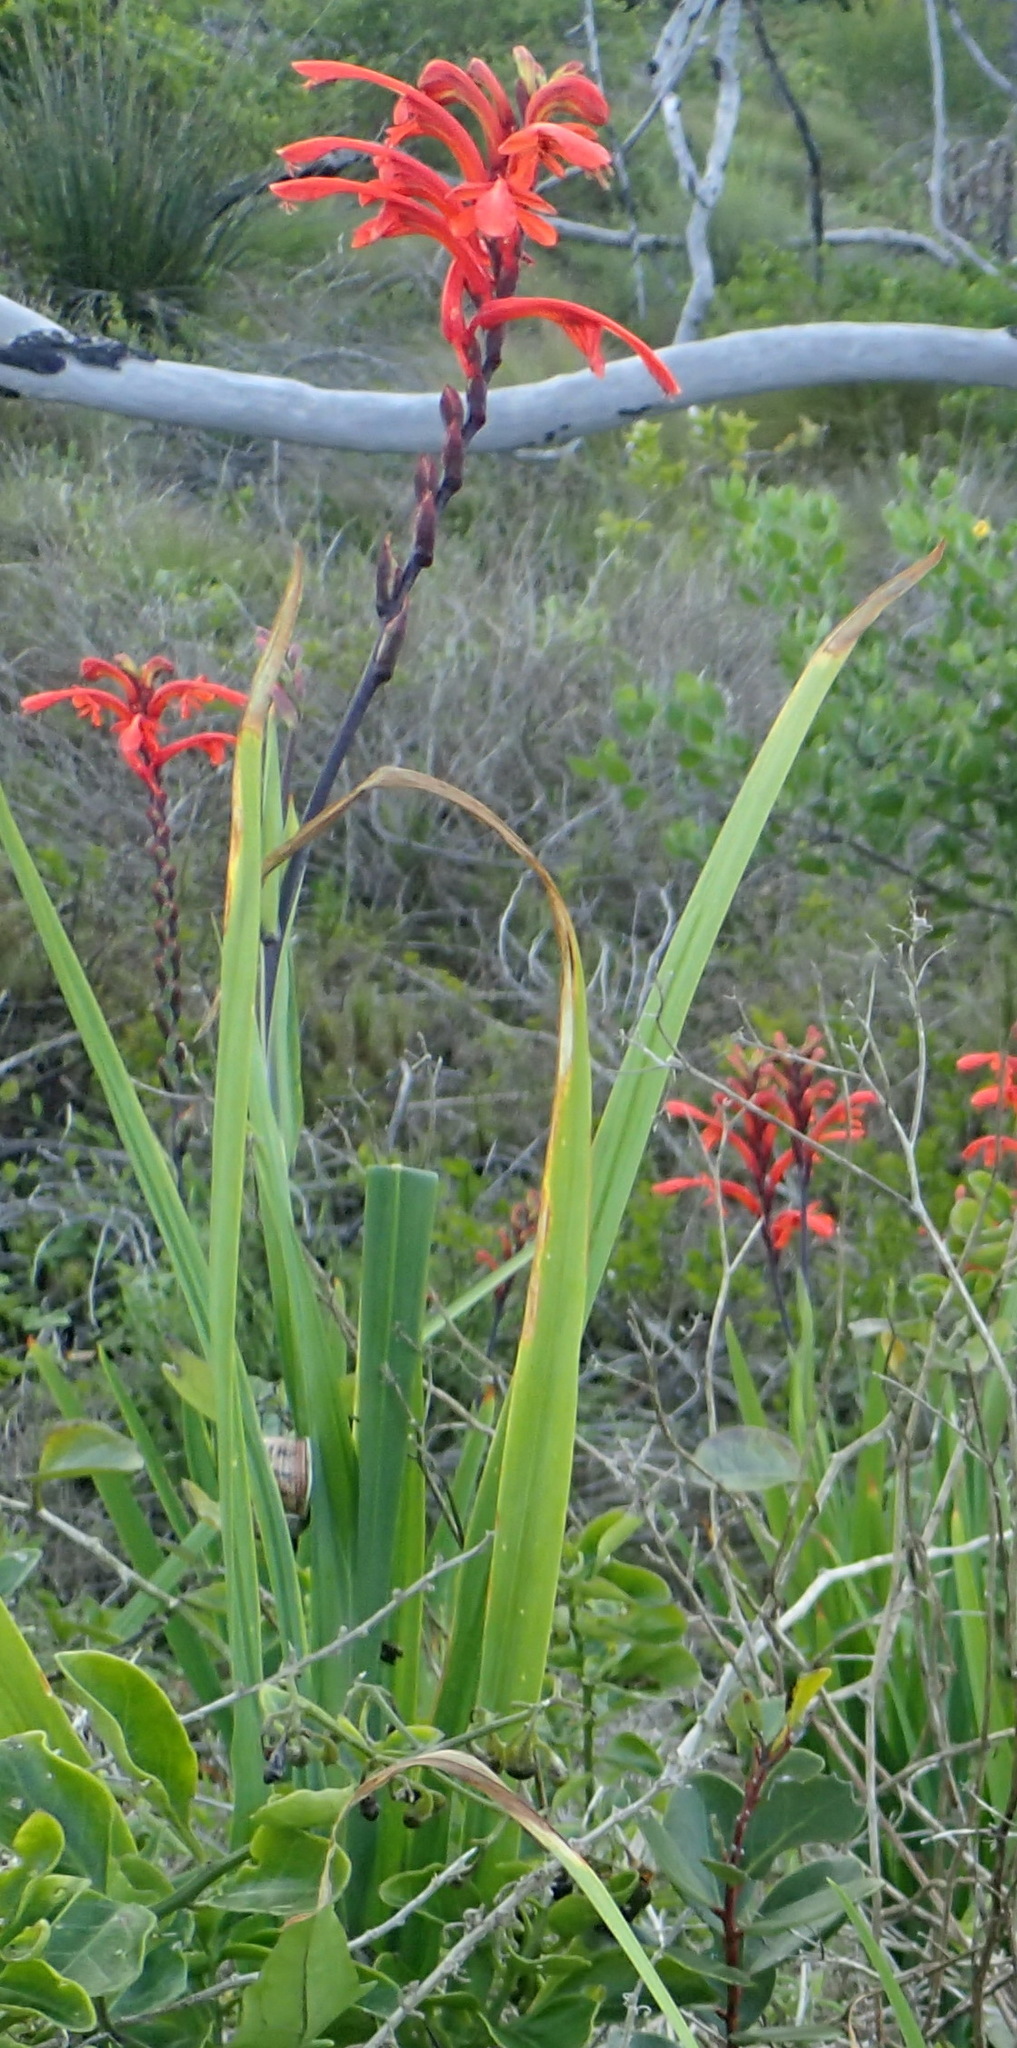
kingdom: Plantae
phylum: Tracheophyta
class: Liliopsida
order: Asparagales
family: Iridaceae
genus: Chasmanthe
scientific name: Chasmanthe aethiopica
